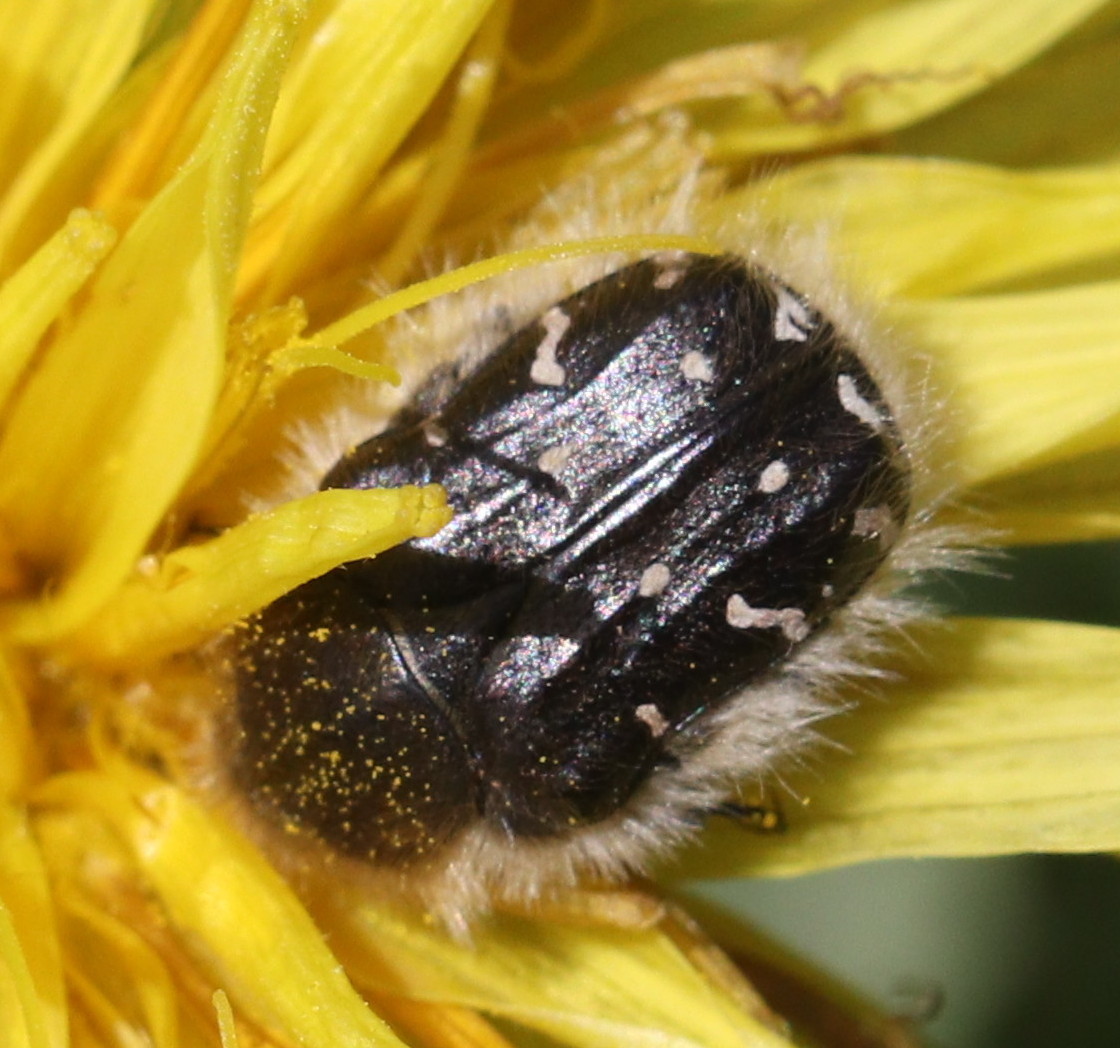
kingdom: Animalia
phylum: Arthropoda
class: Insecta
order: Coleoptera
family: Scarabaeidae
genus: Tropinota
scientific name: Tropinota hirta
